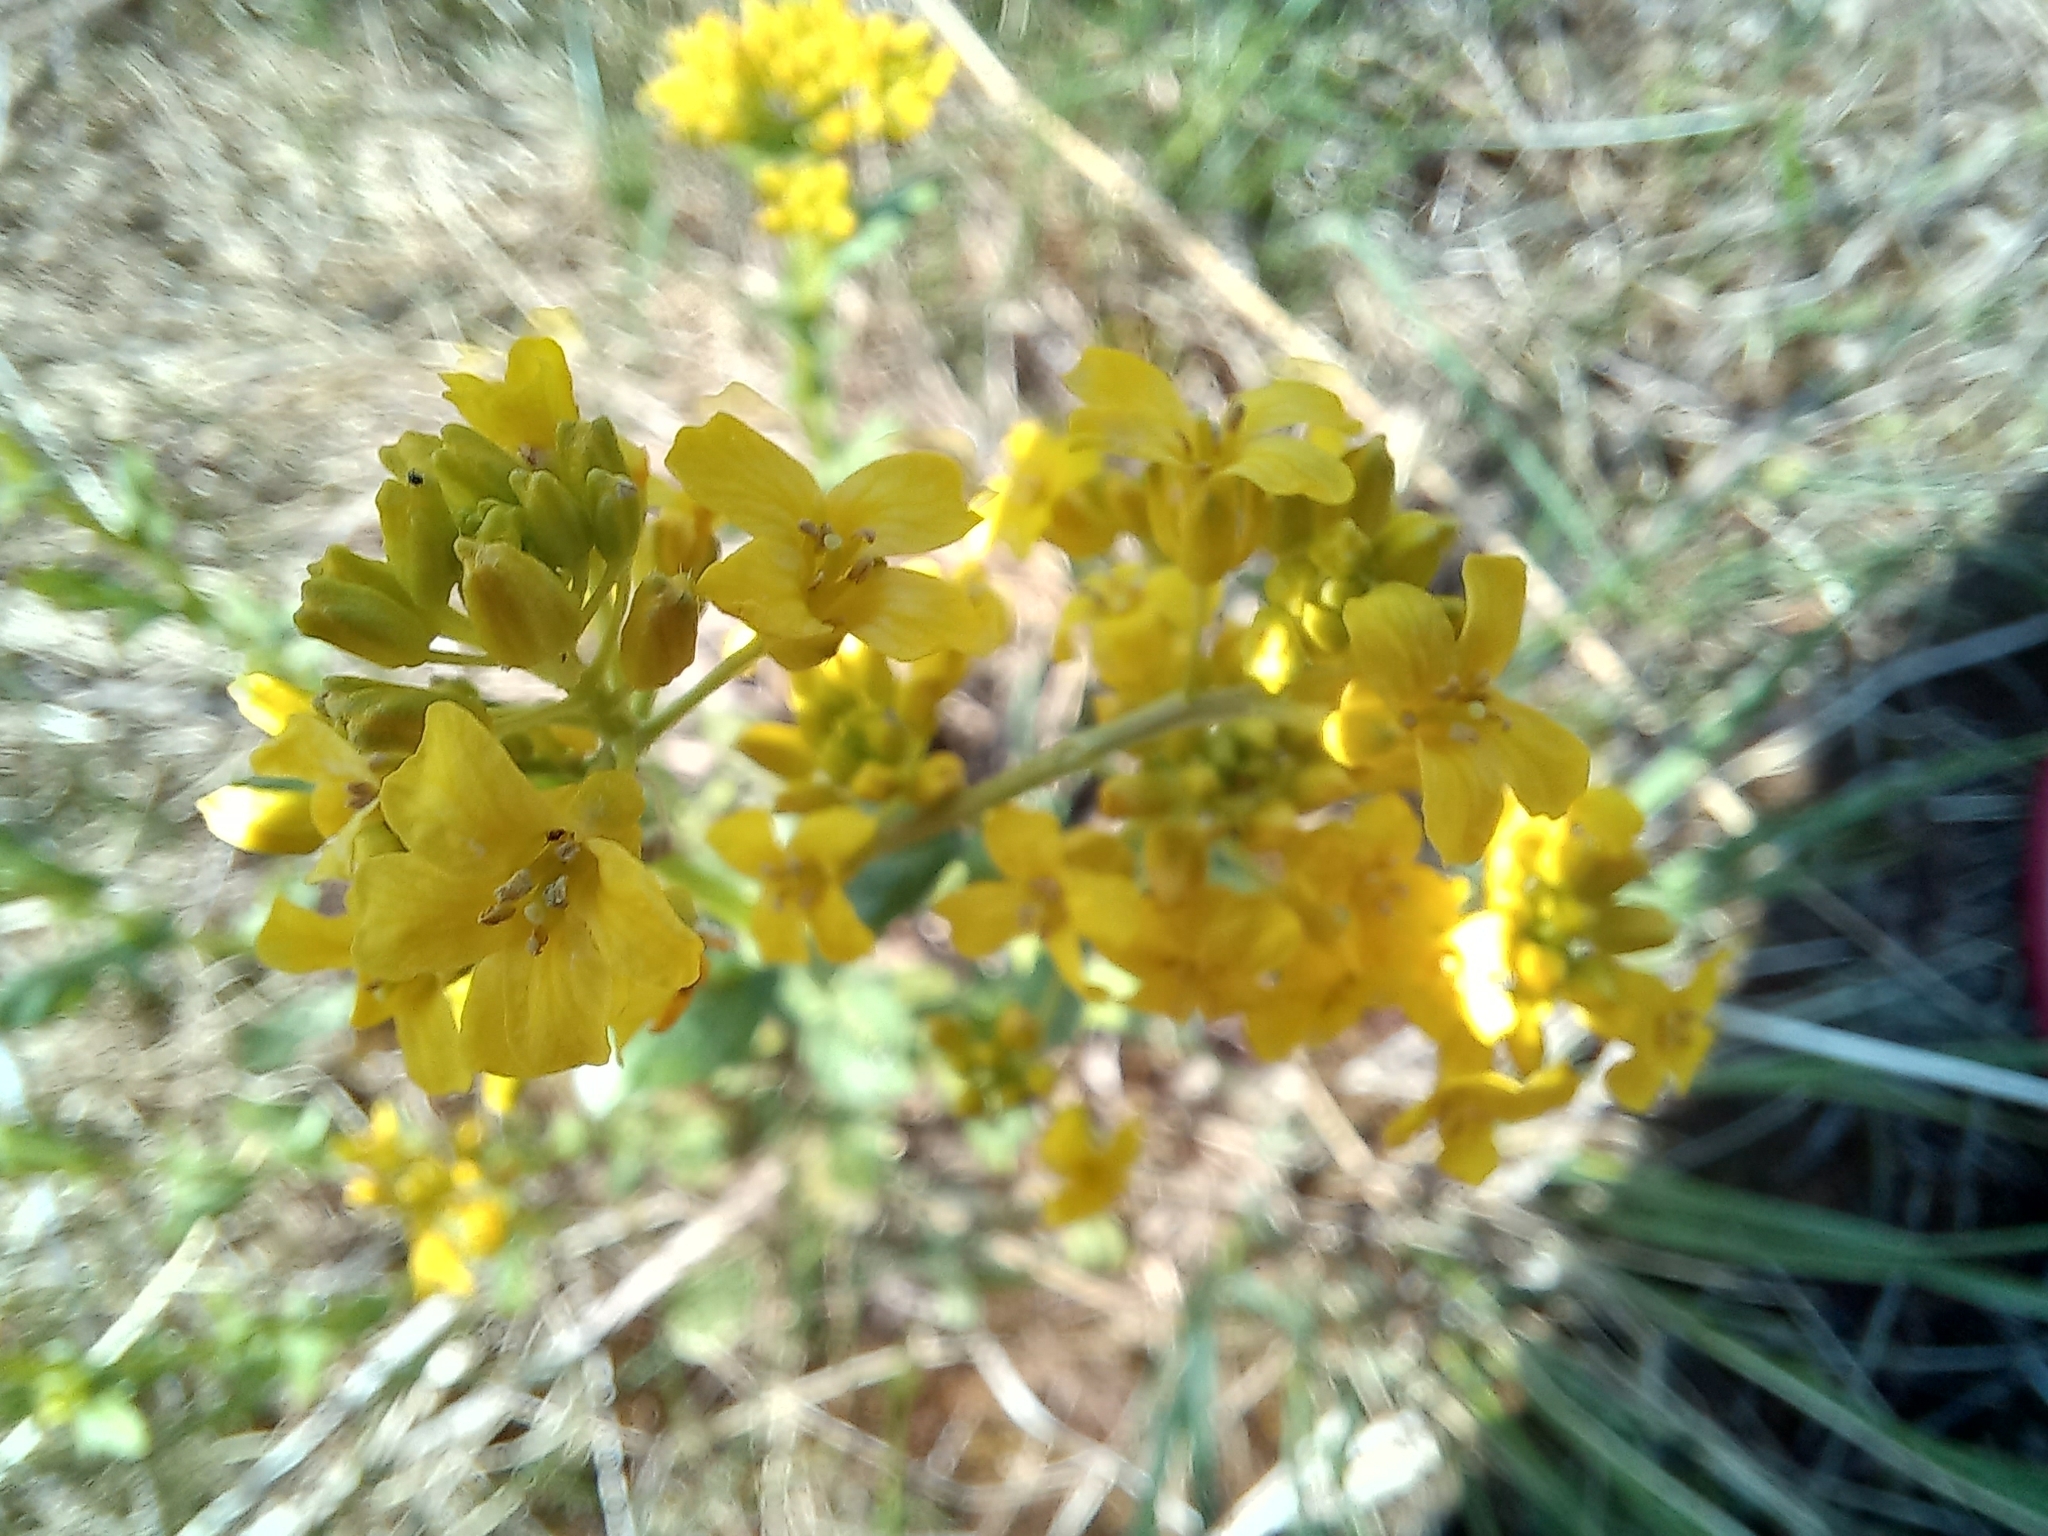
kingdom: Plantae
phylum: Tracheophyta
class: Magnoliopsida
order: Brassicales
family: Brassicaceae
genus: Barbarea
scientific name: Barbarea vulgaris
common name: Cressy-greens
